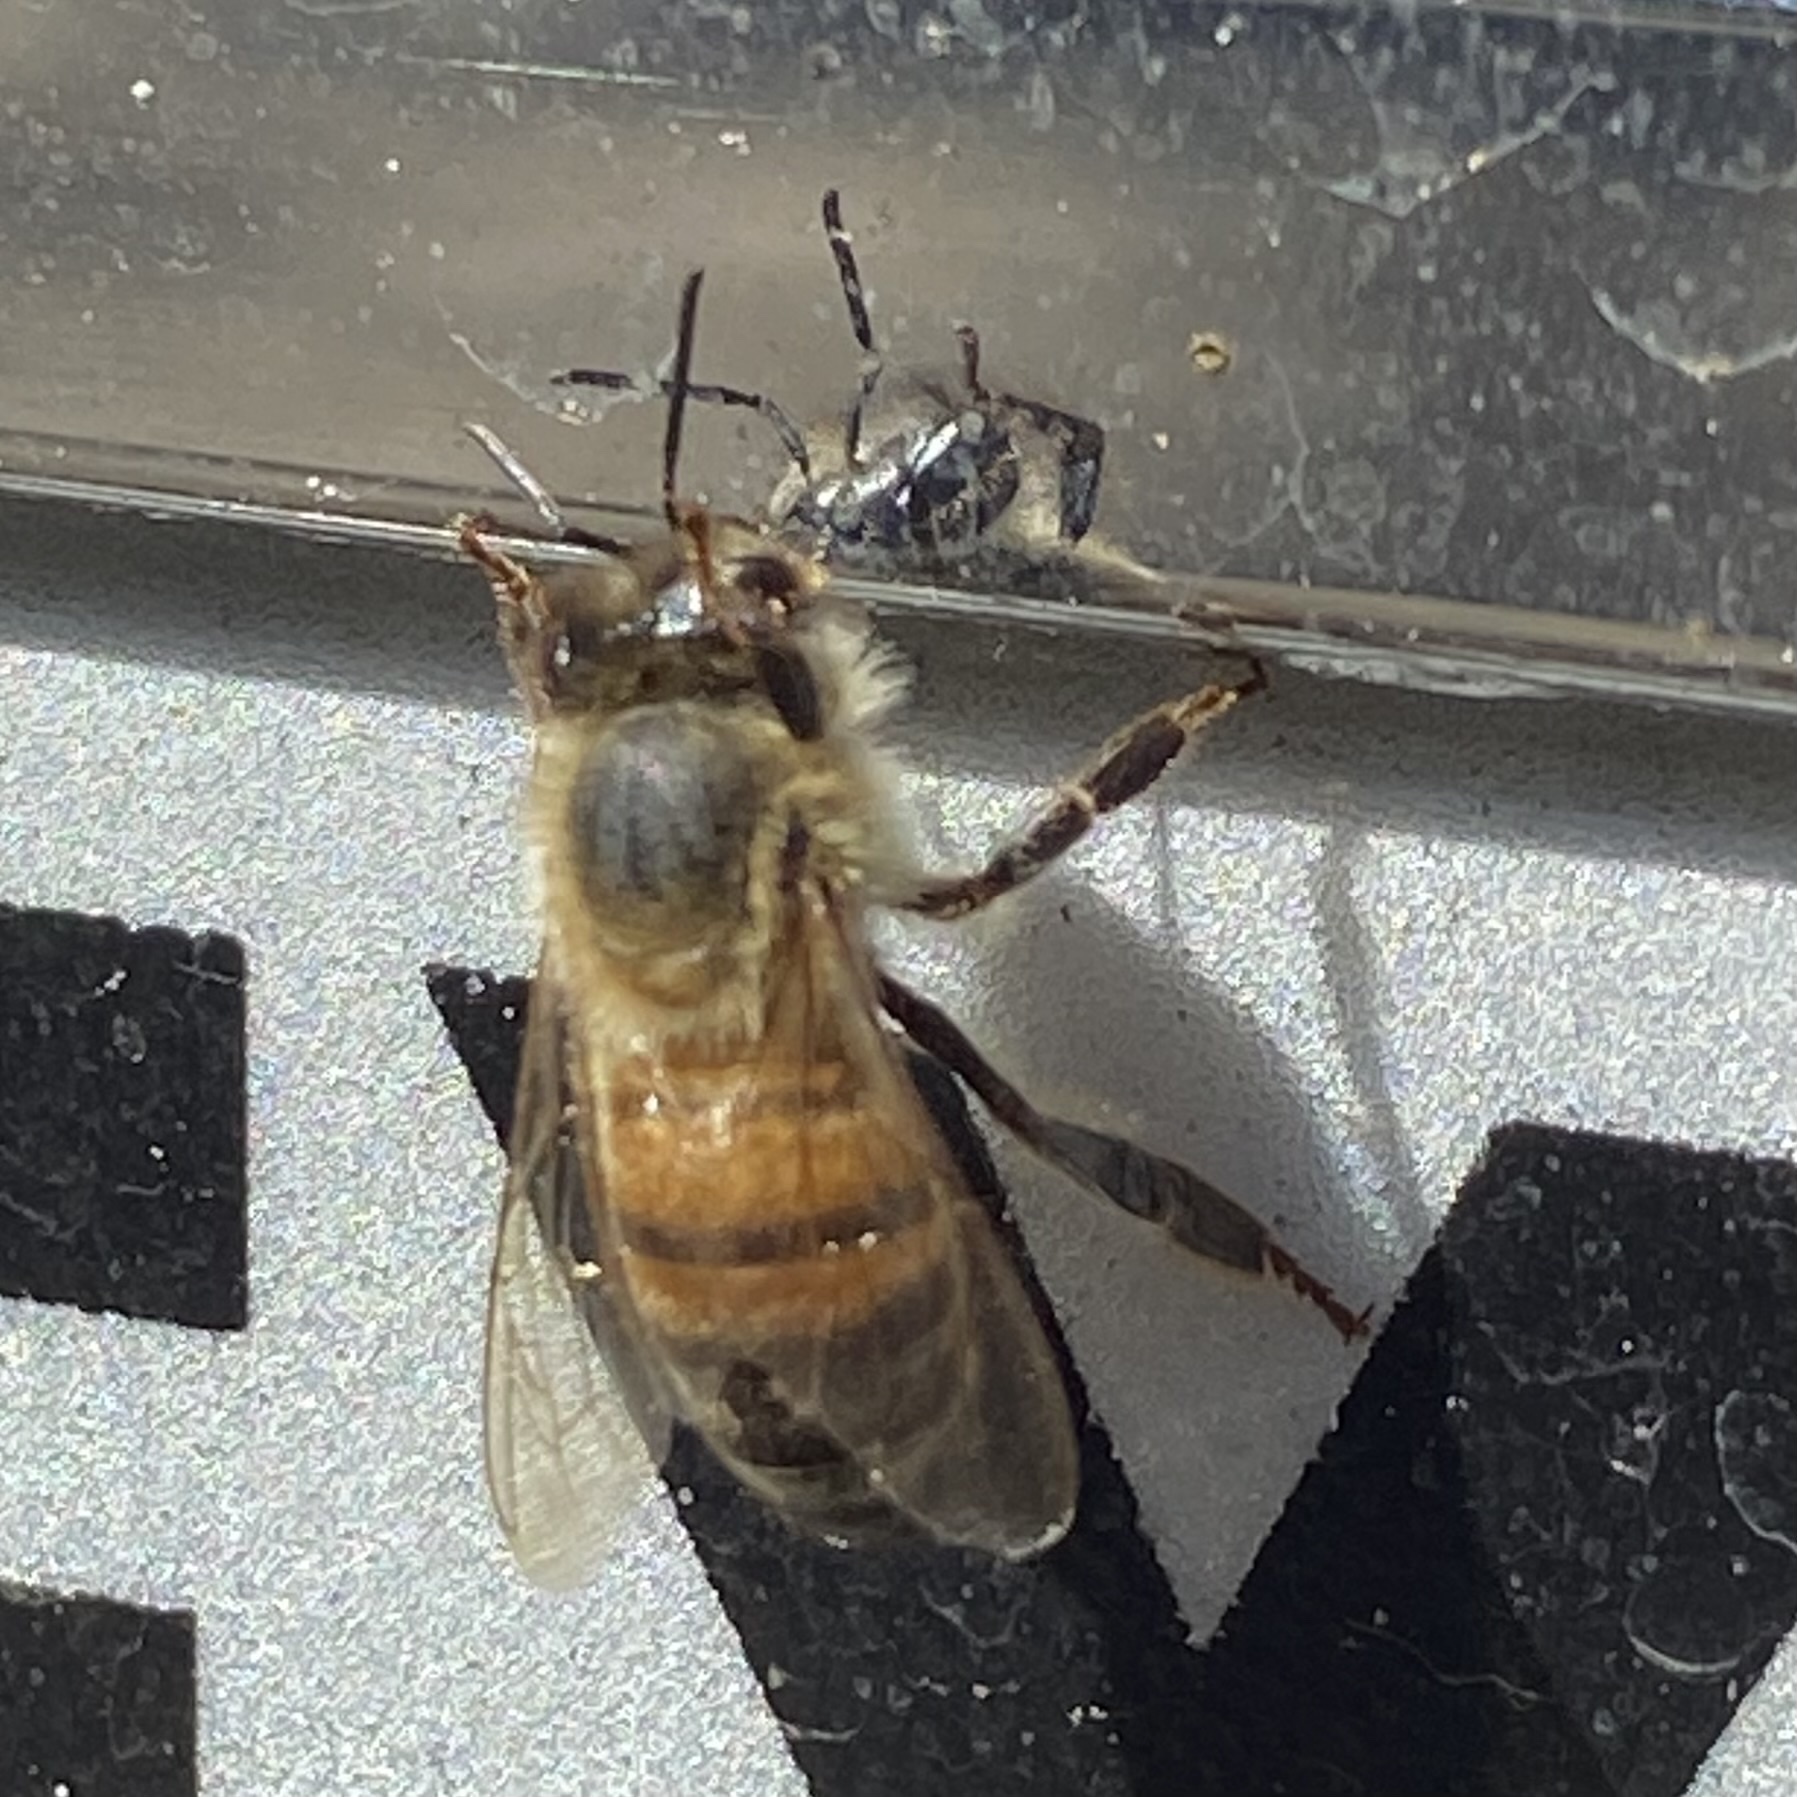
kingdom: Animalia
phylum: Arthropoda
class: Insecta
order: Hymenoptera
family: Apidae
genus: Apis
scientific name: Apis mellifera
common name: Honey bee
